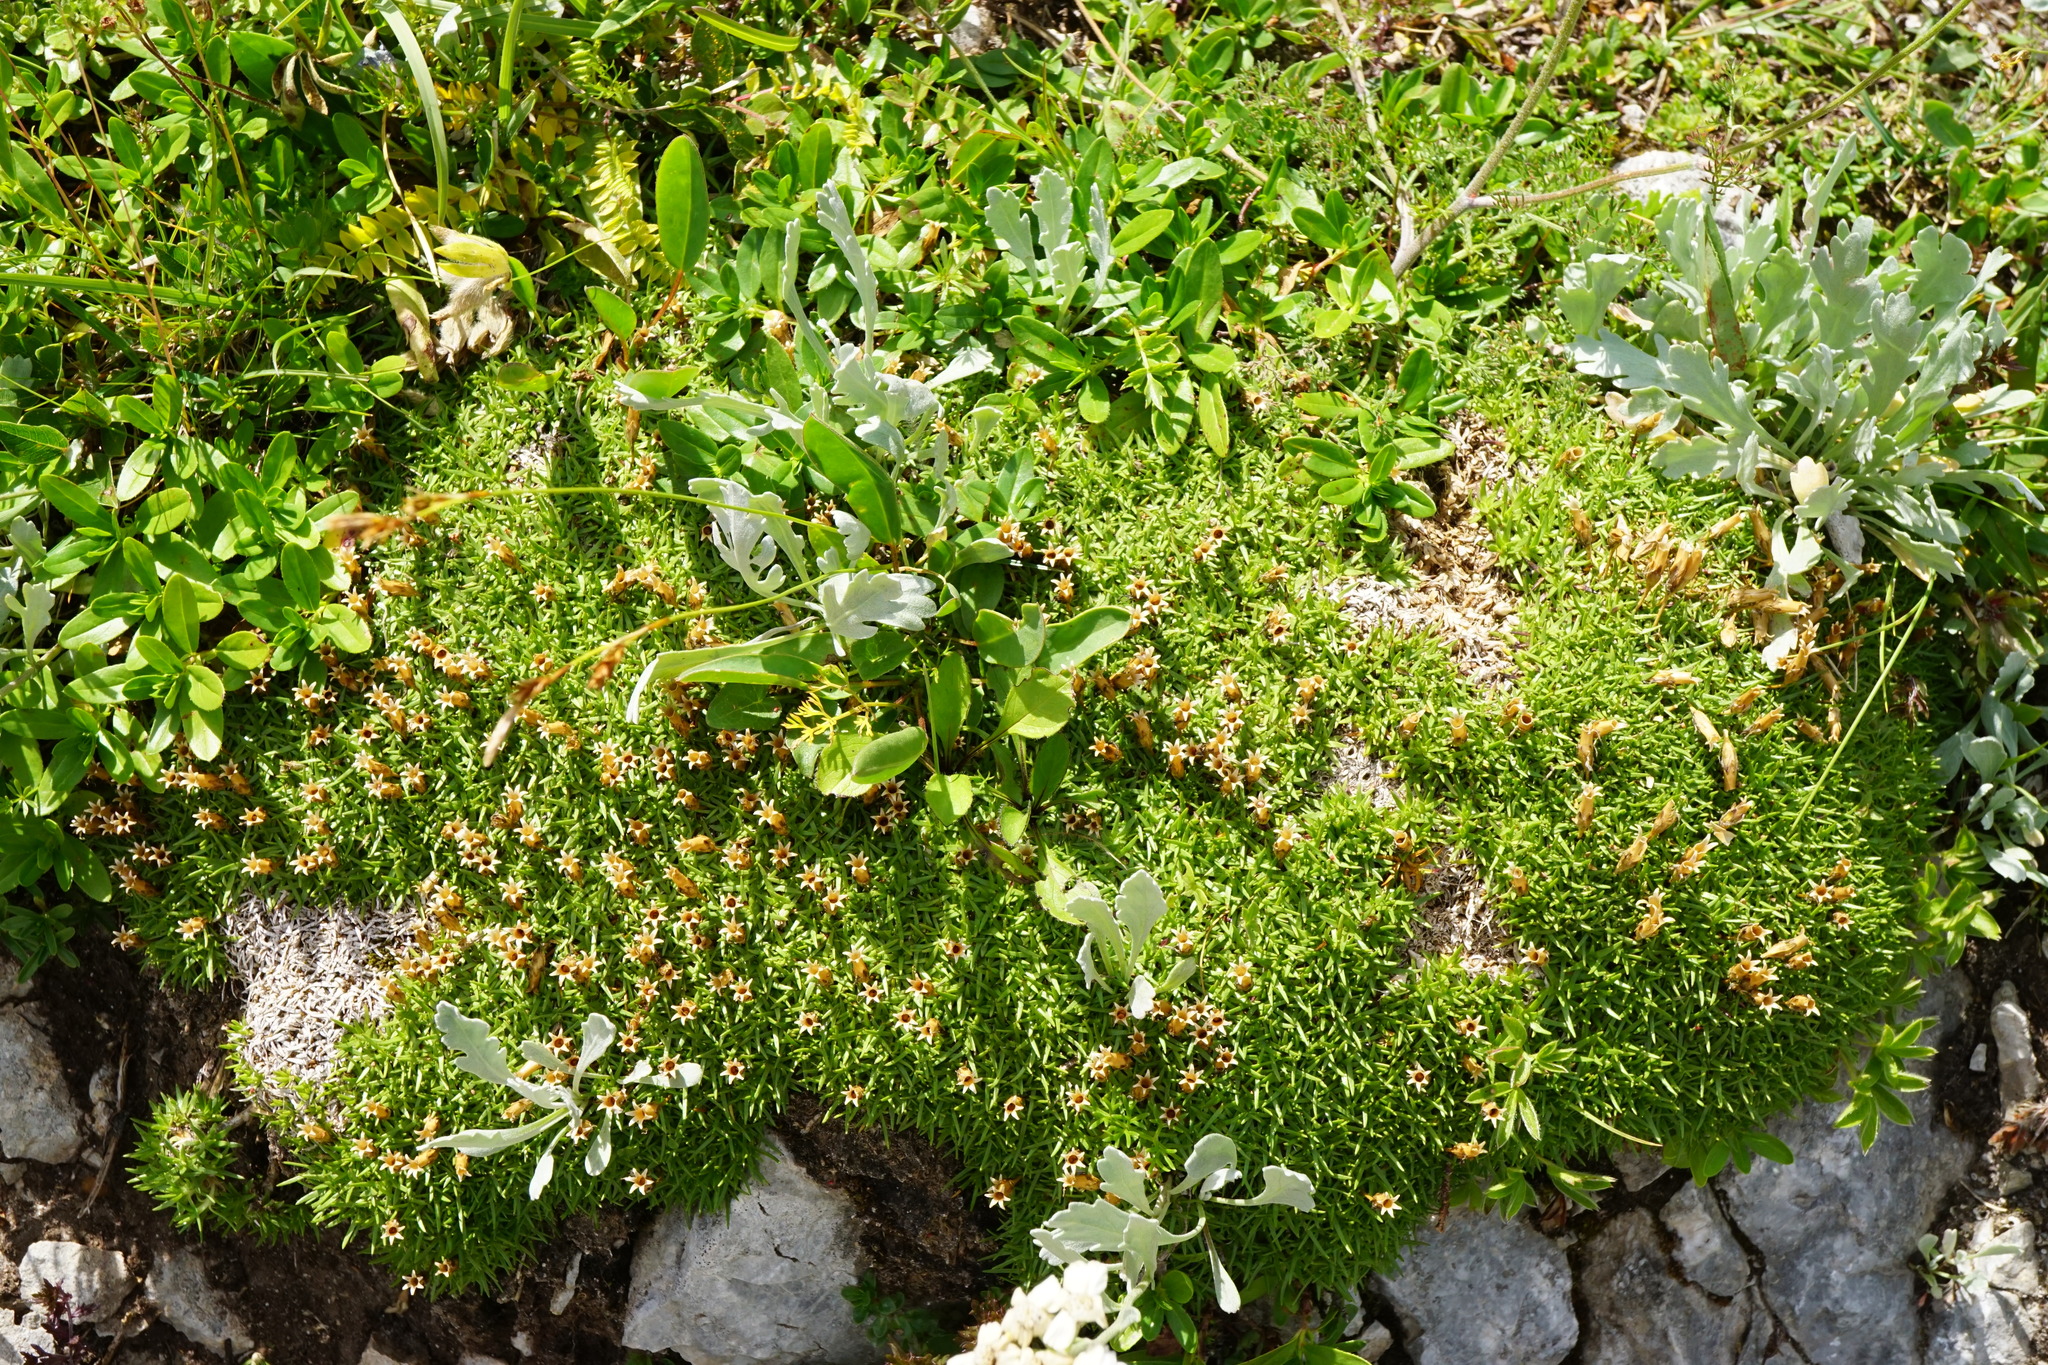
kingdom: Plantae
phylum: Tracheophyta
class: Magnoliopsida
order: Caryophyllales
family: Caryophyllaceae
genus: Silene
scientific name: Silene acaulis
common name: Moss campion
